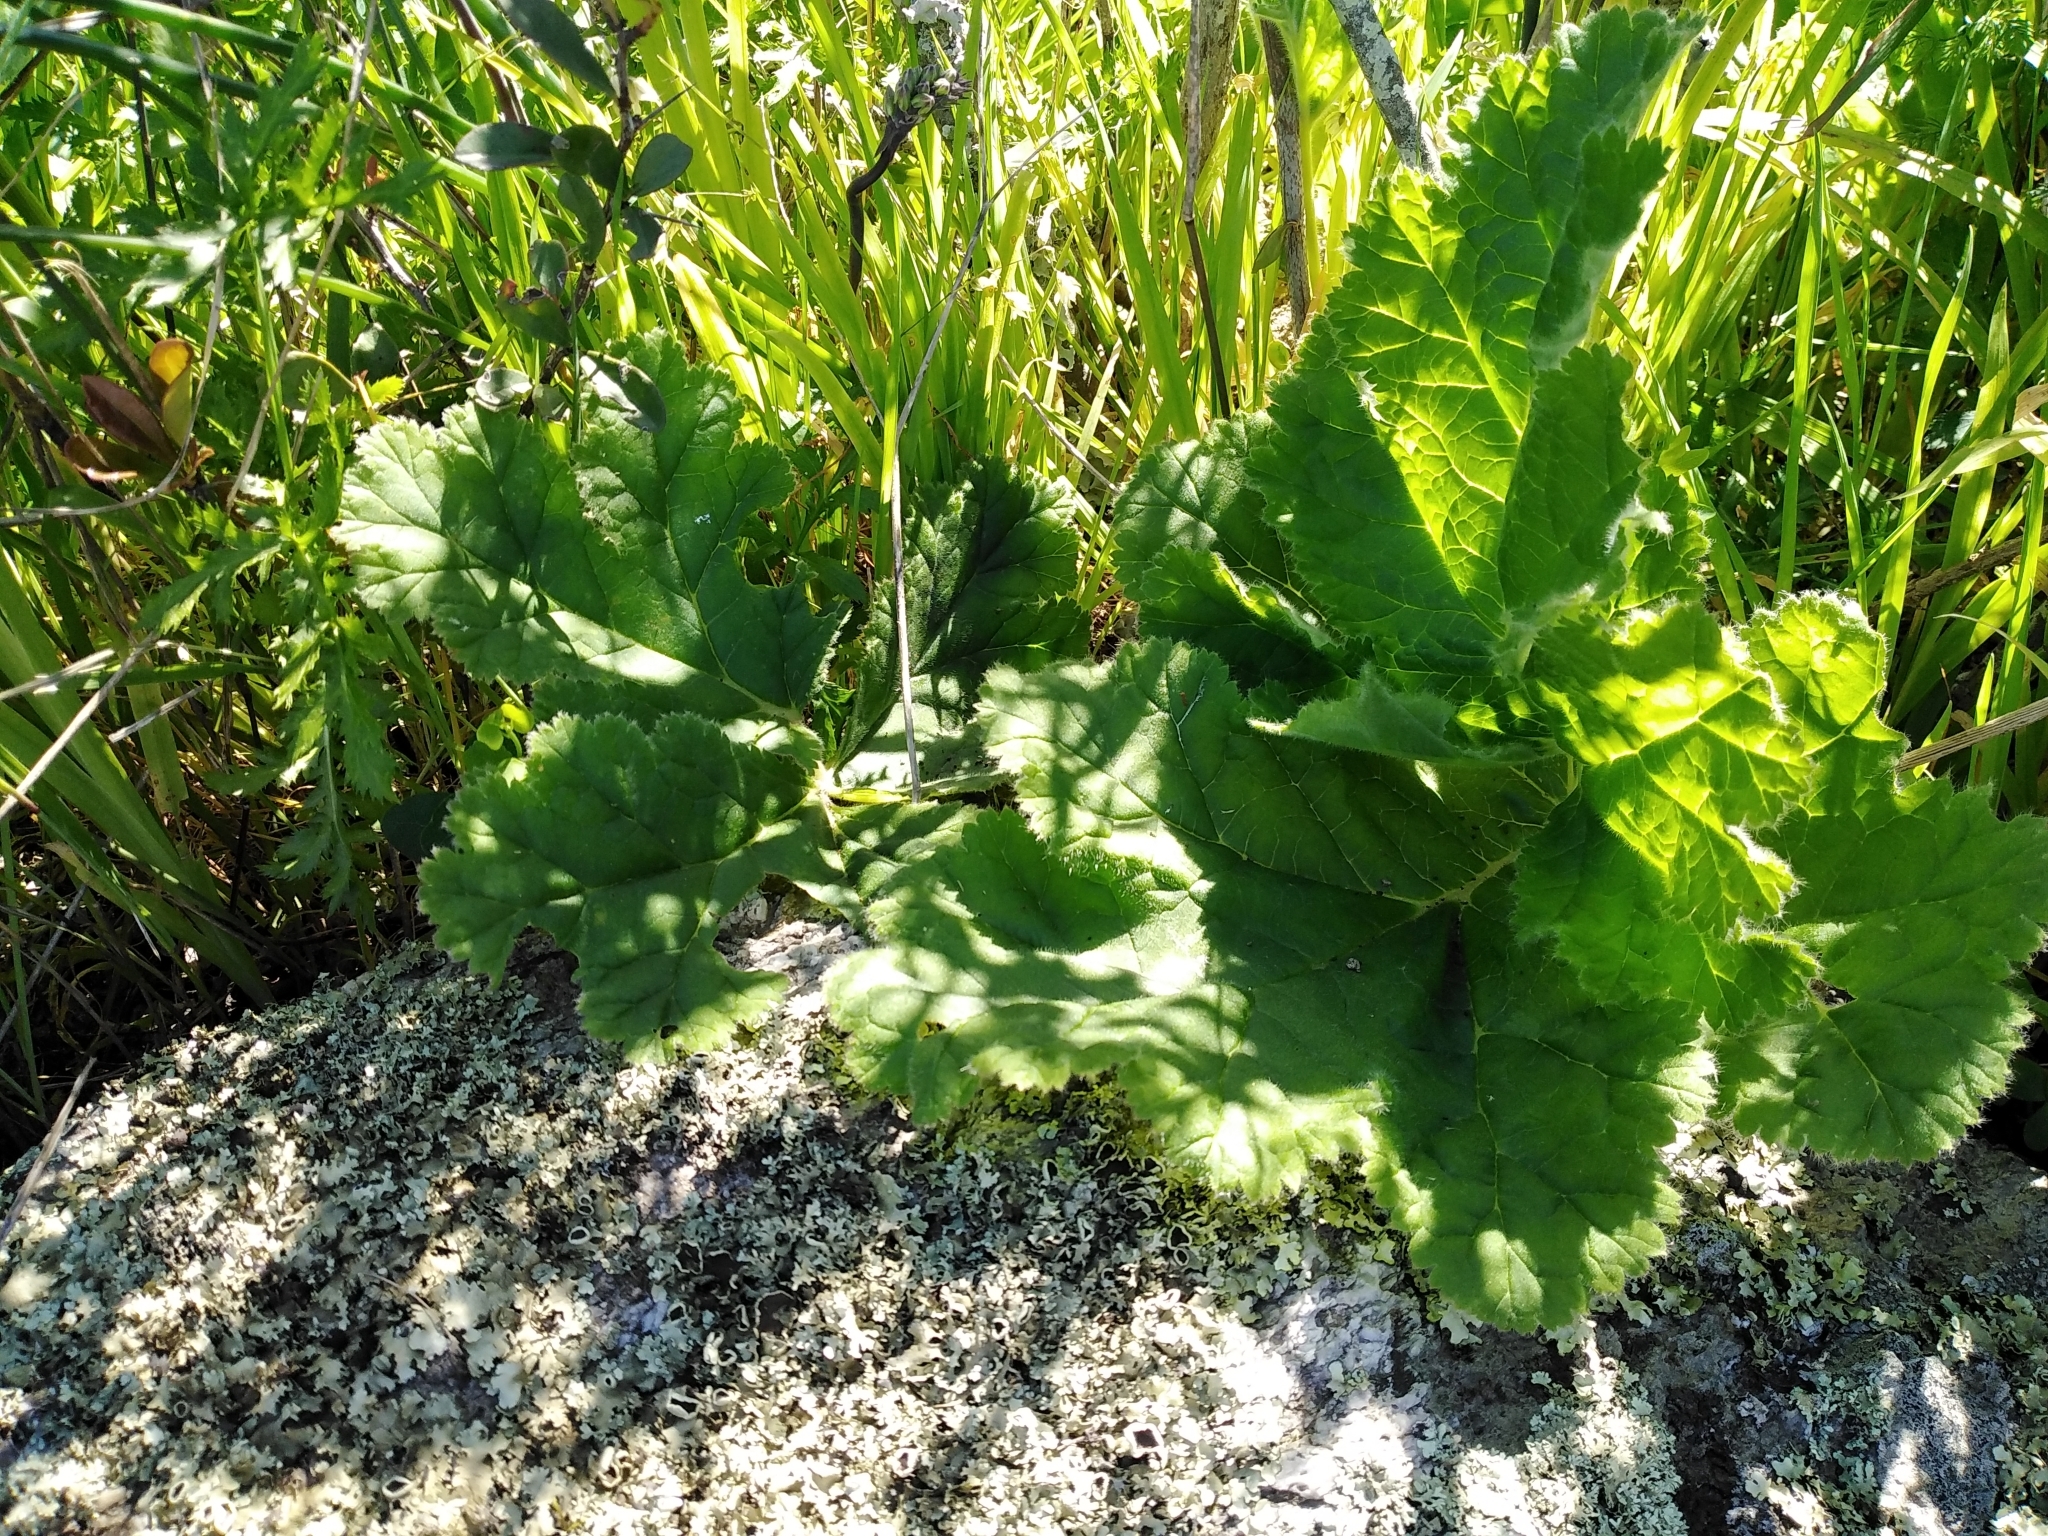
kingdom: Plantae
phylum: Tracheophyta
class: Magnoliopsida
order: Geraniales
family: Geraniaceae
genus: Pelargonium
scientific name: Pelargonium lobatum
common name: Vine-leaf pelargonium
